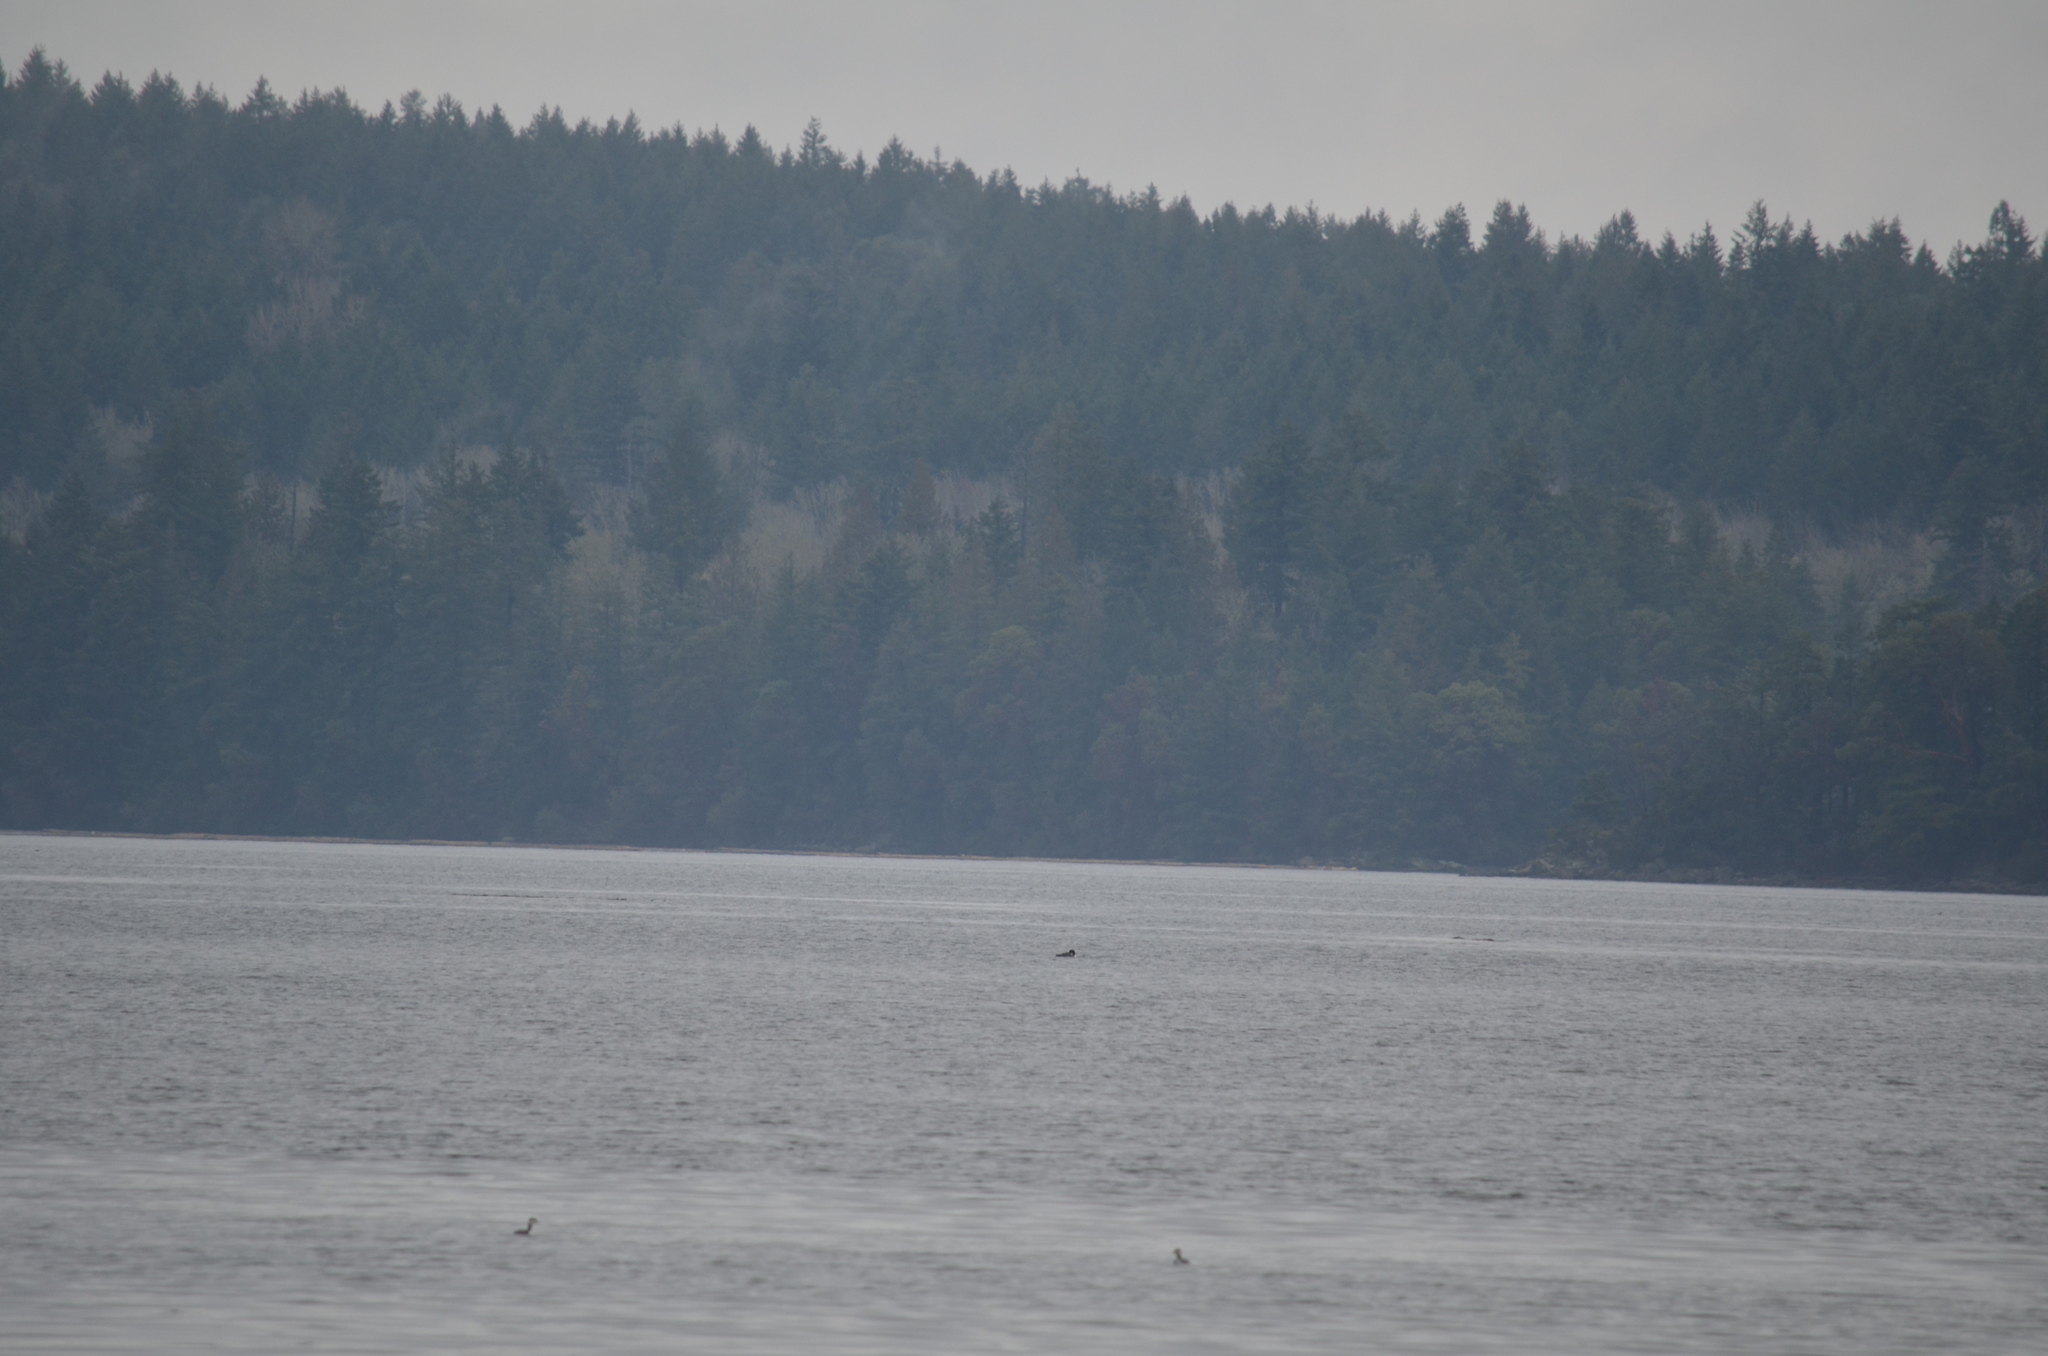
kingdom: Animalia
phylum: Chordata
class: Aves
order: Gaviiformes
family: Gaviidae
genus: Gavia
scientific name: Gavia immer
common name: Common loon
